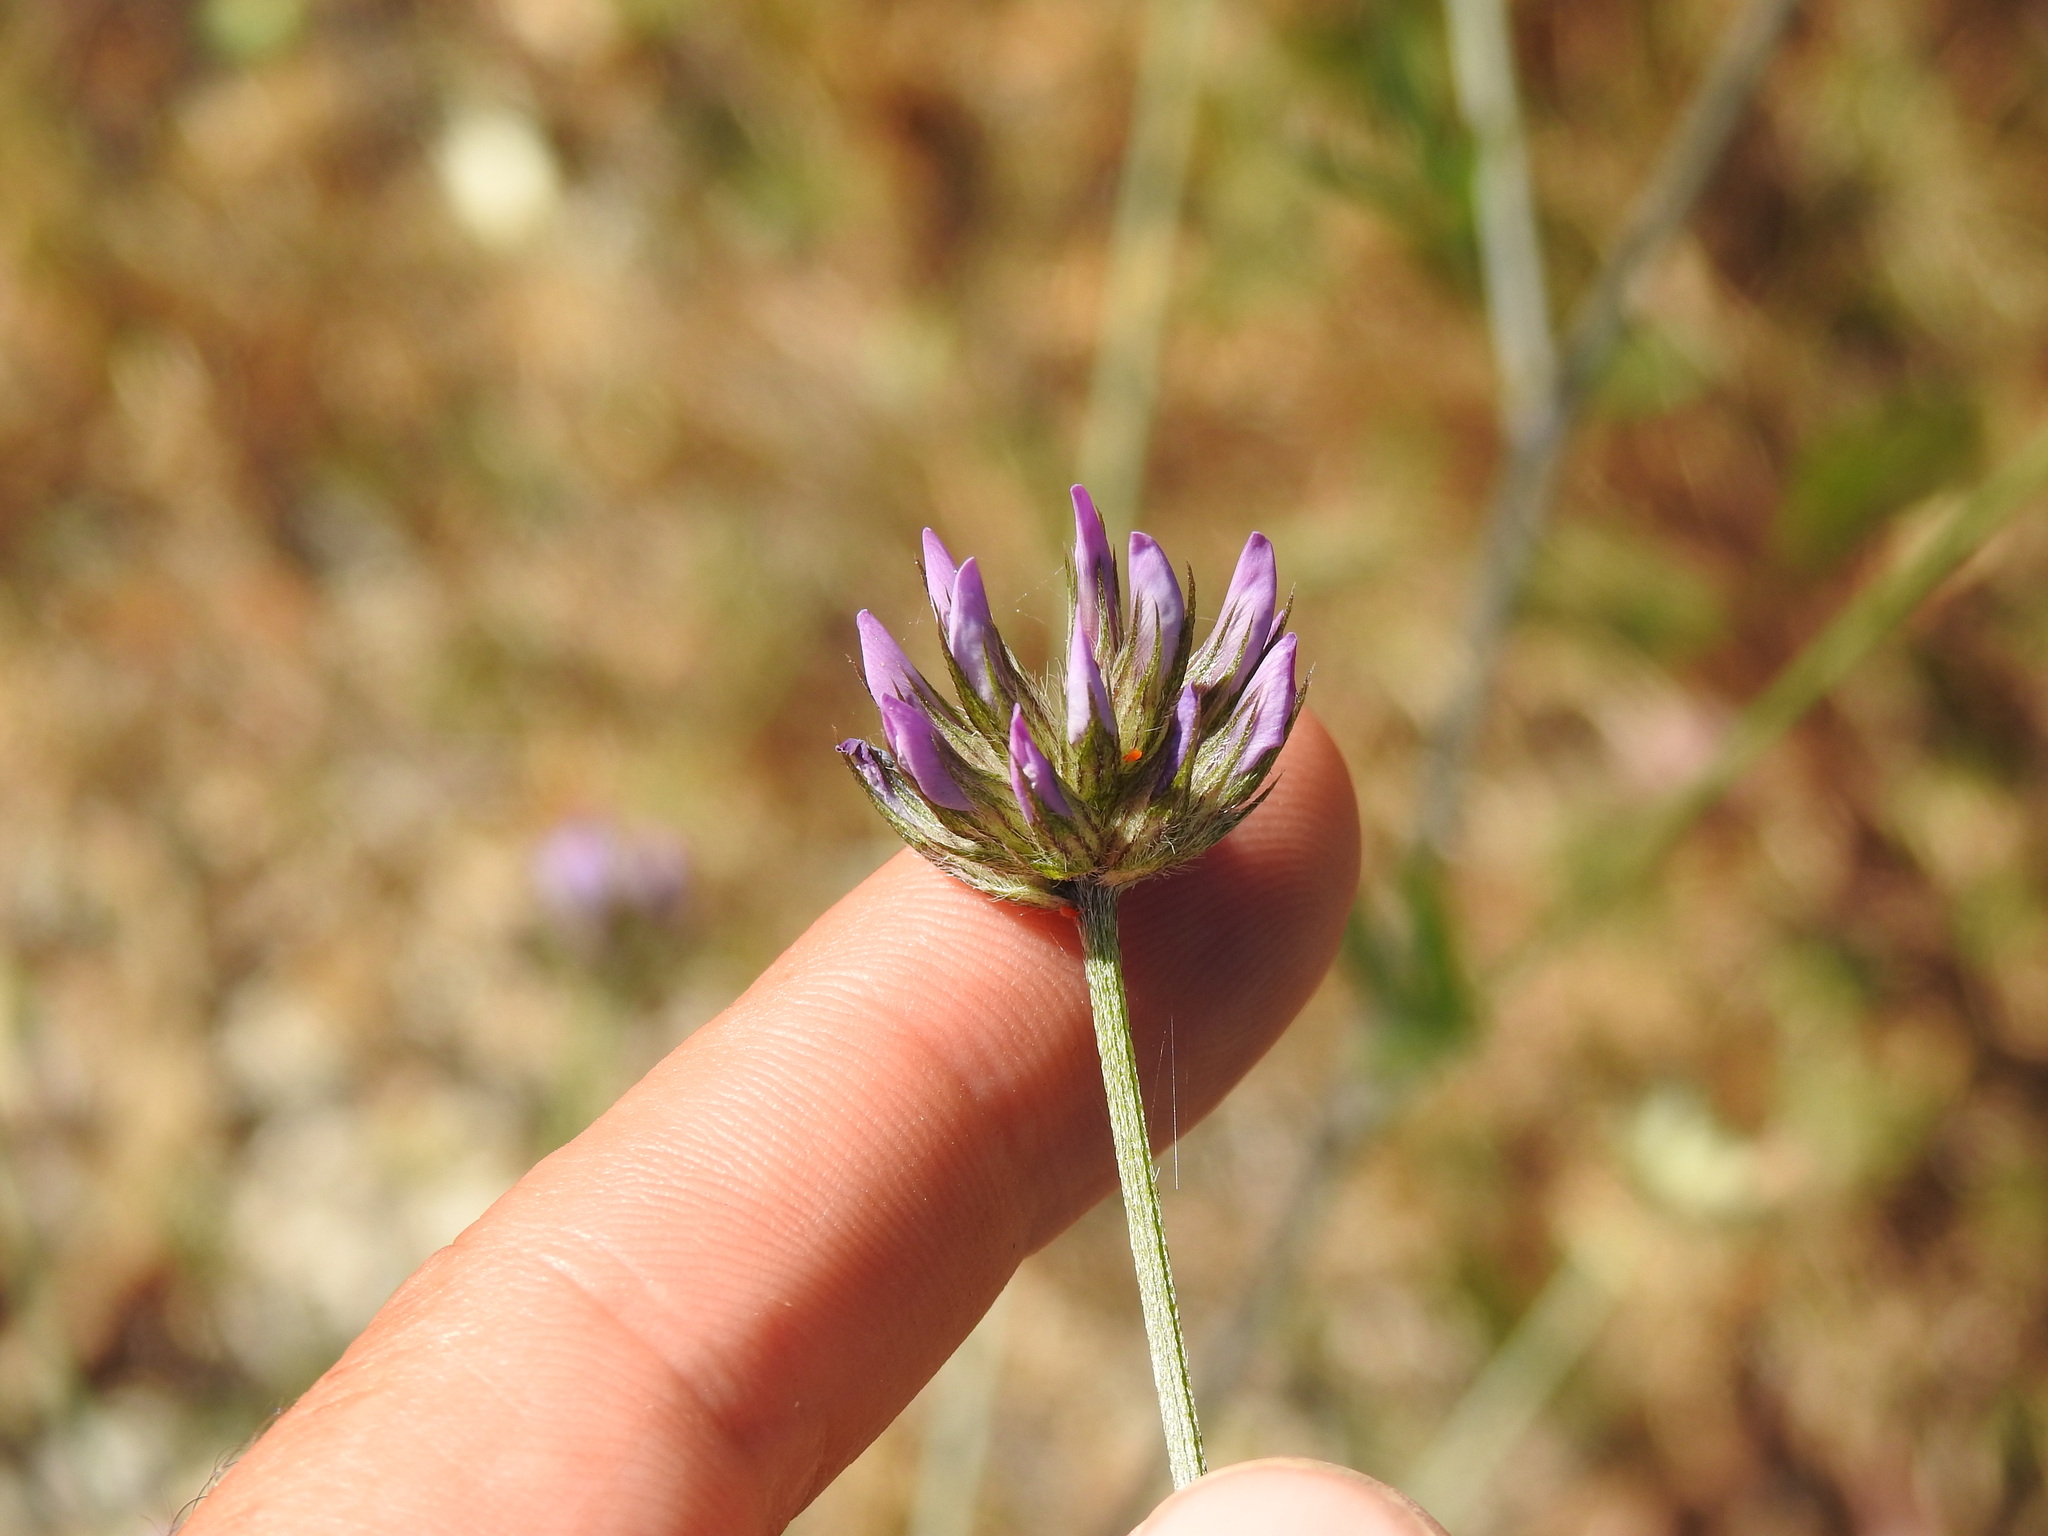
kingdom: Plantae
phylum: Tracheophyta
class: Magnoliopsida
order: Fabales
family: Fabaceae
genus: Bituminaria
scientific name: Bituminaria bituminosa
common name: Arabian pea
